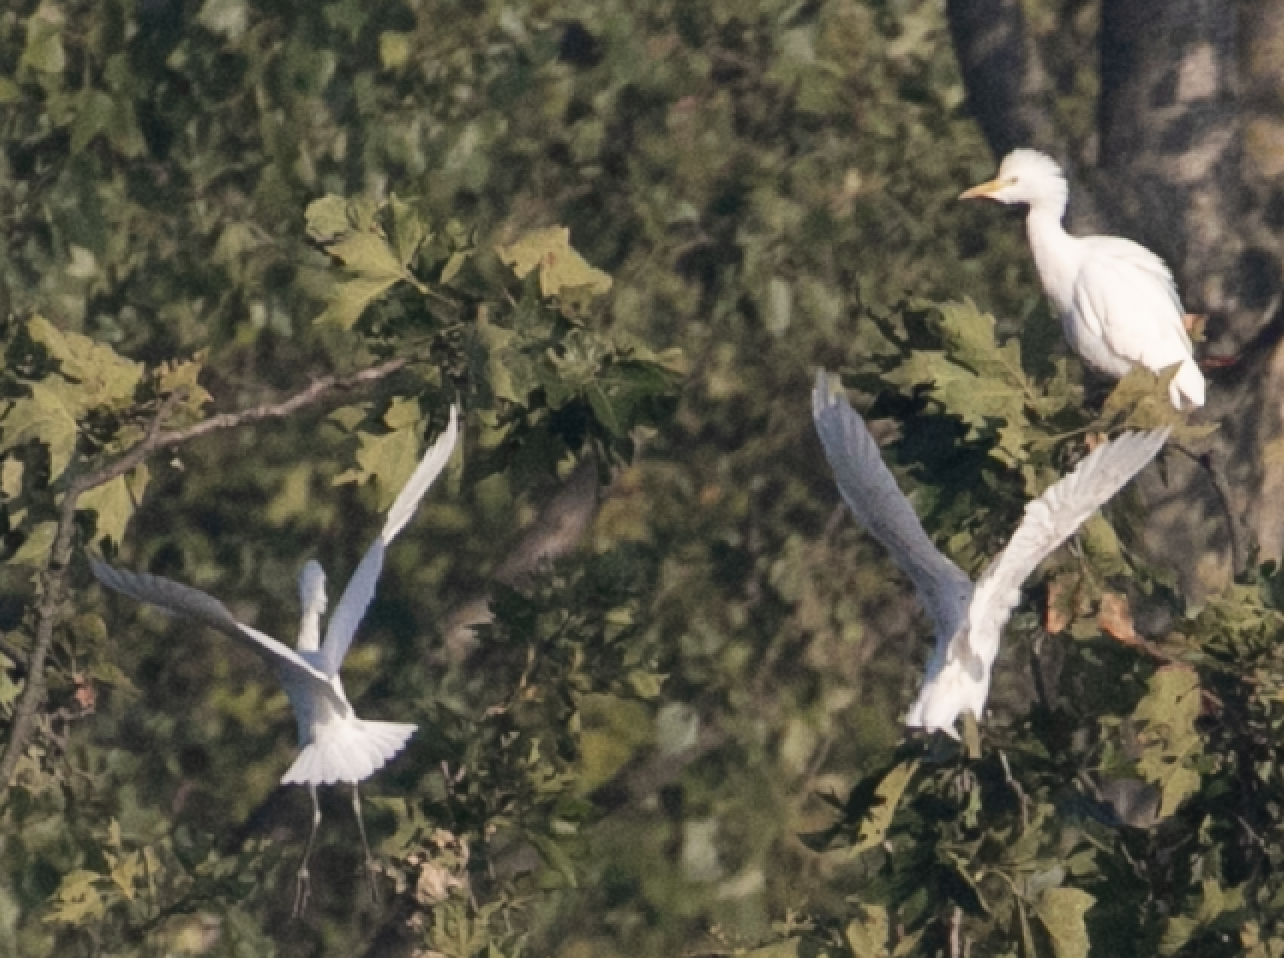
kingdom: Animalia
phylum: Chordata
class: Aves
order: Pelecaniformes
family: Ardeidae
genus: Bubulcus
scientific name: Bubulcus ibis
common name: Cattle egret
